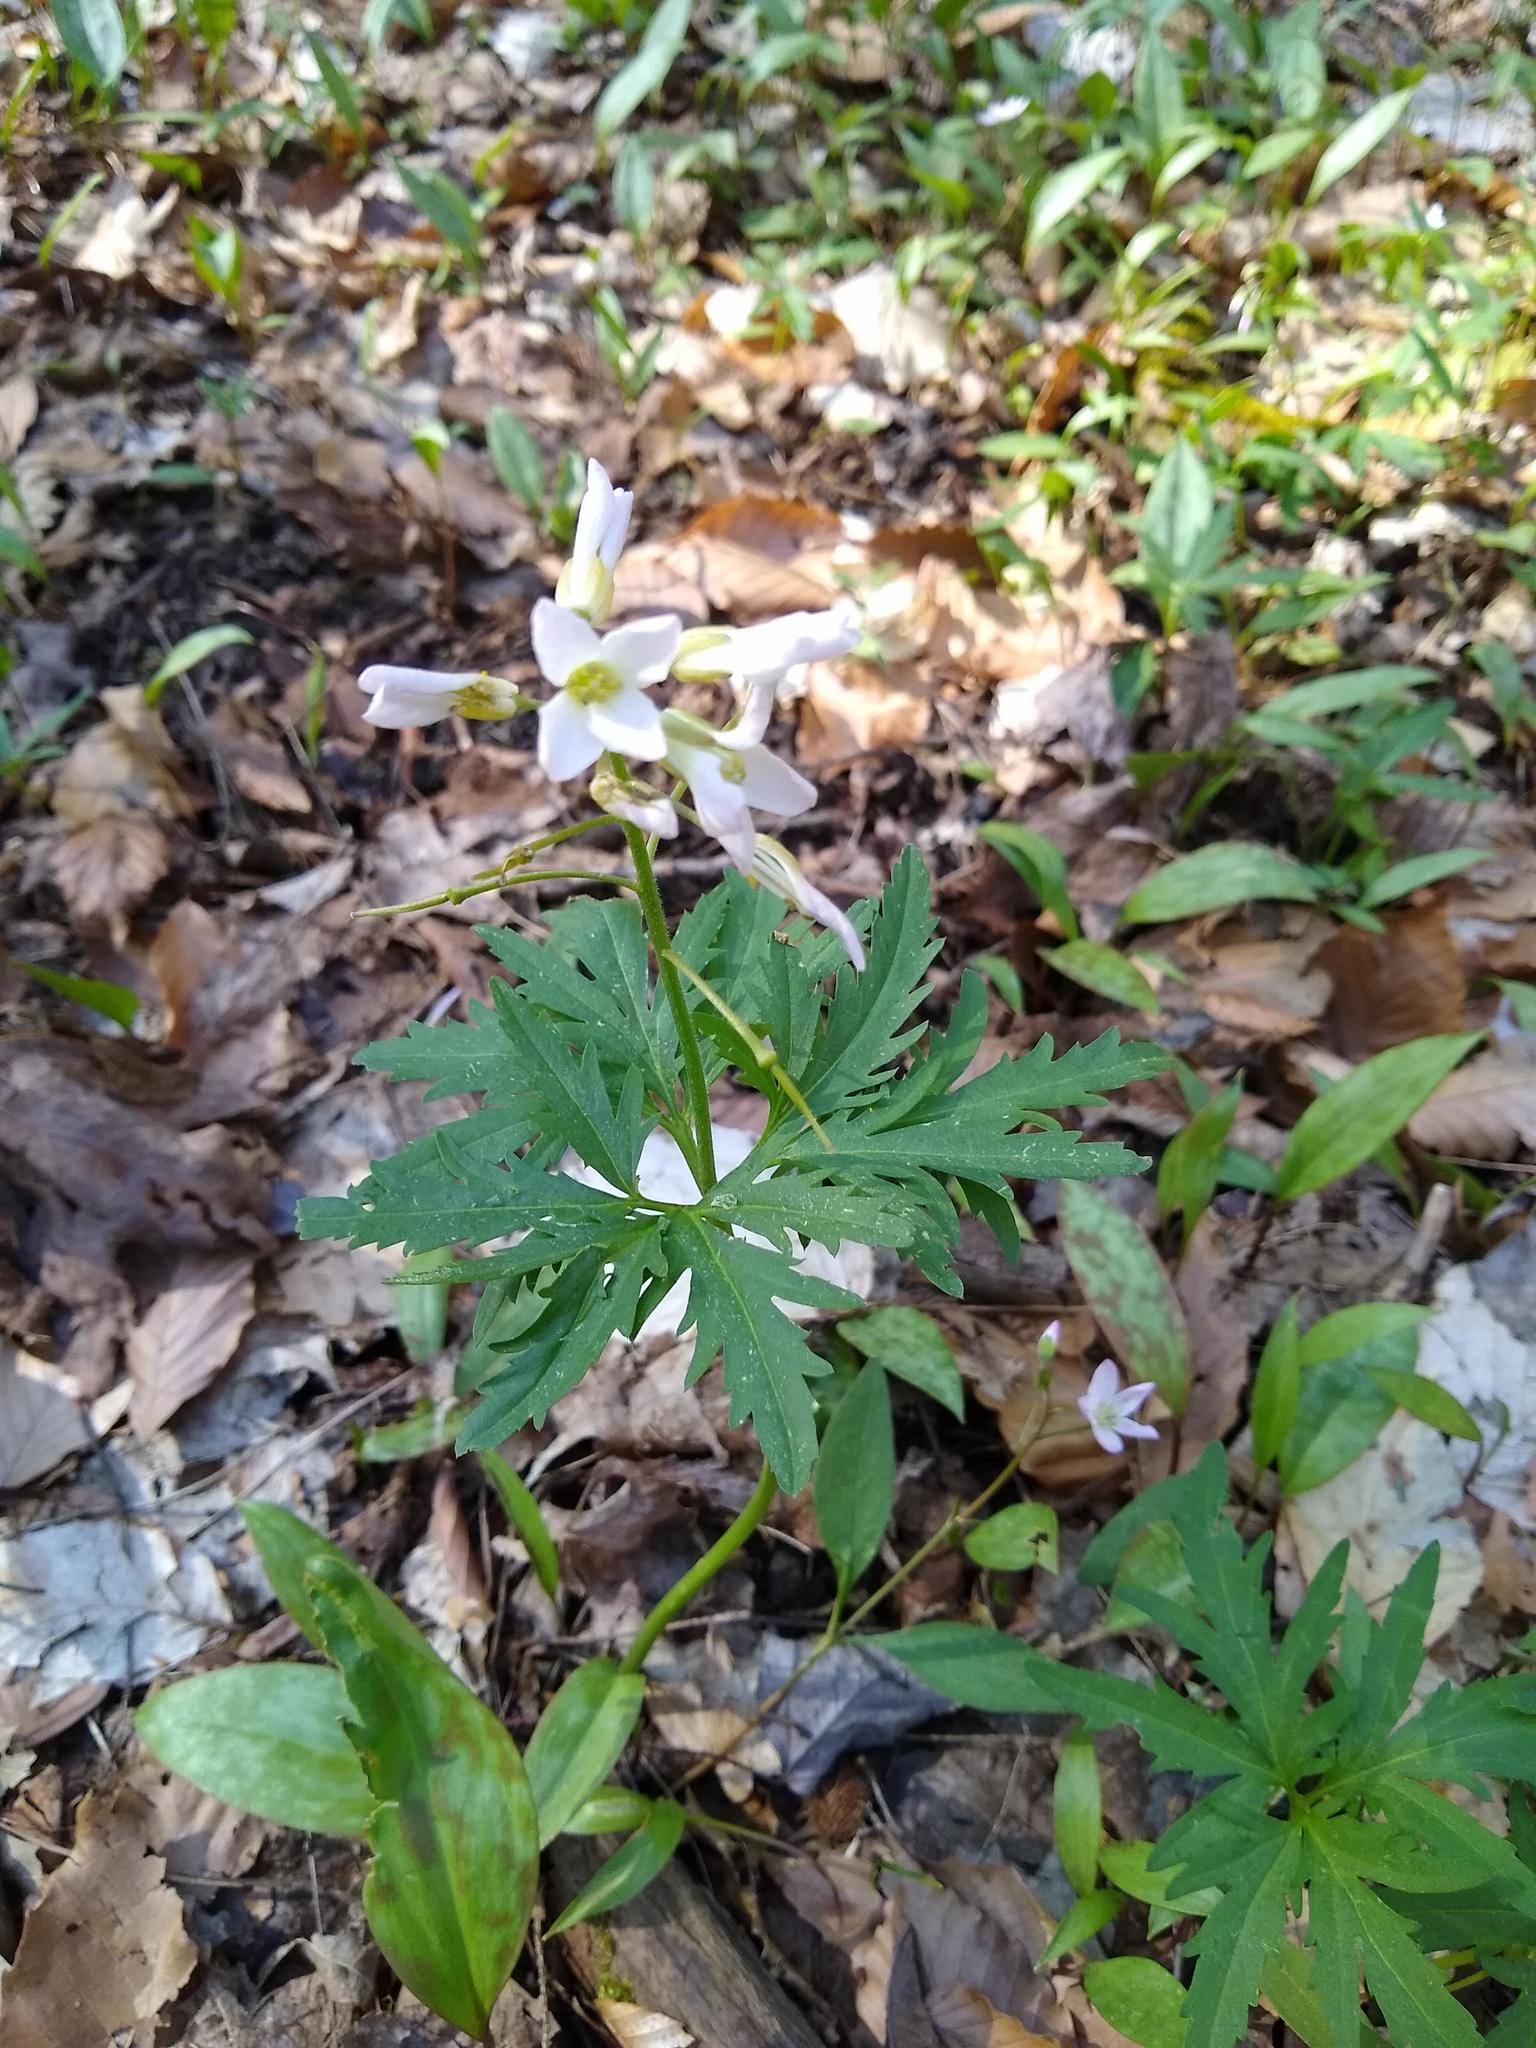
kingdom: Plantae
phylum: Tracheophyta
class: Magnoliopsida
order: Brassicales
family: Brassicaceae
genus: Cardamine
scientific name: Cardamine concatenata
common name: Cut-leaf toothcup
